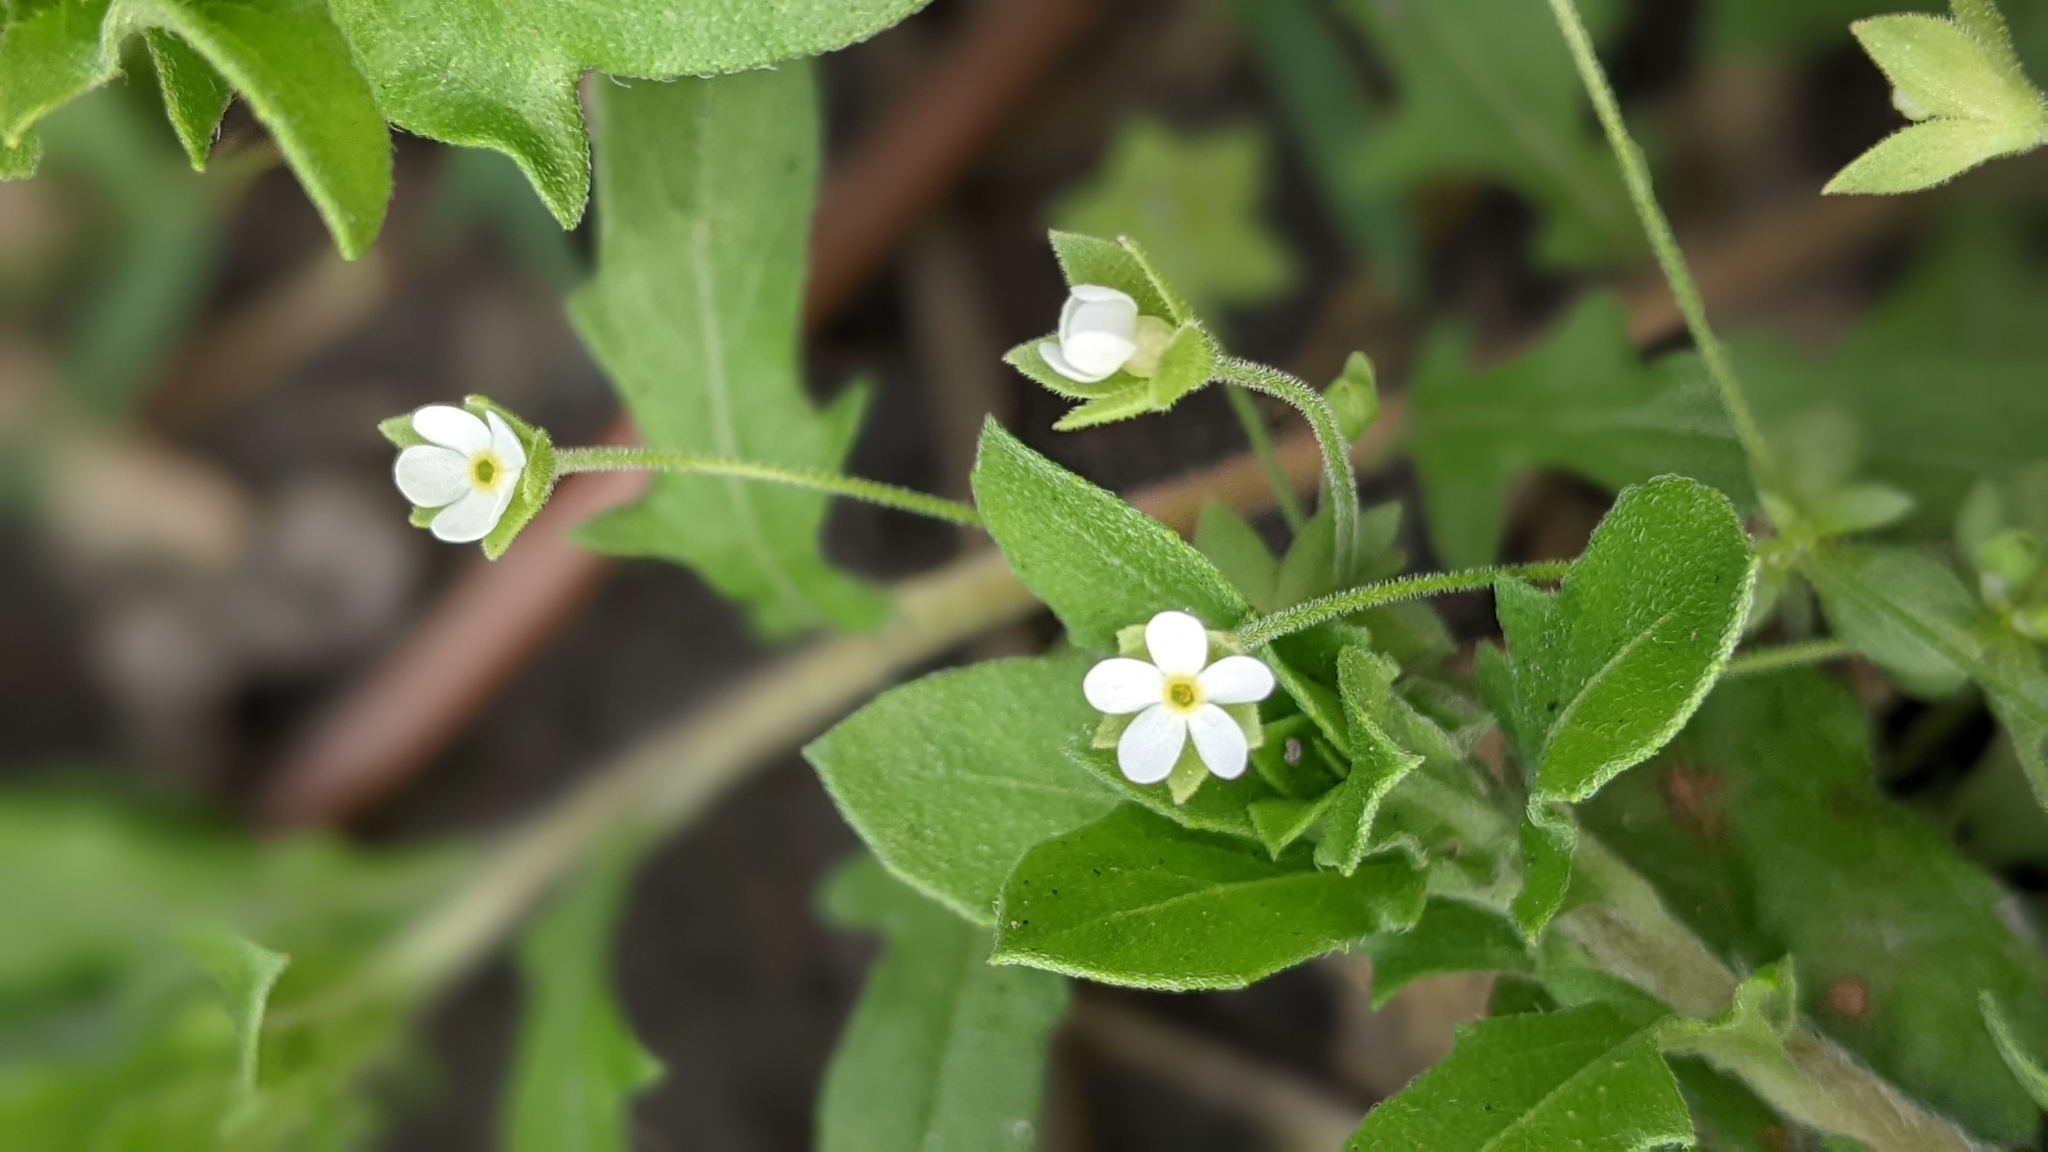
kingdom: Plantae
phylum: Tracheophyta
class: Magnoliopsida
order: Ericales
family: Primulaceae
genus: Androsace
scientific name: Androsace umbellata
